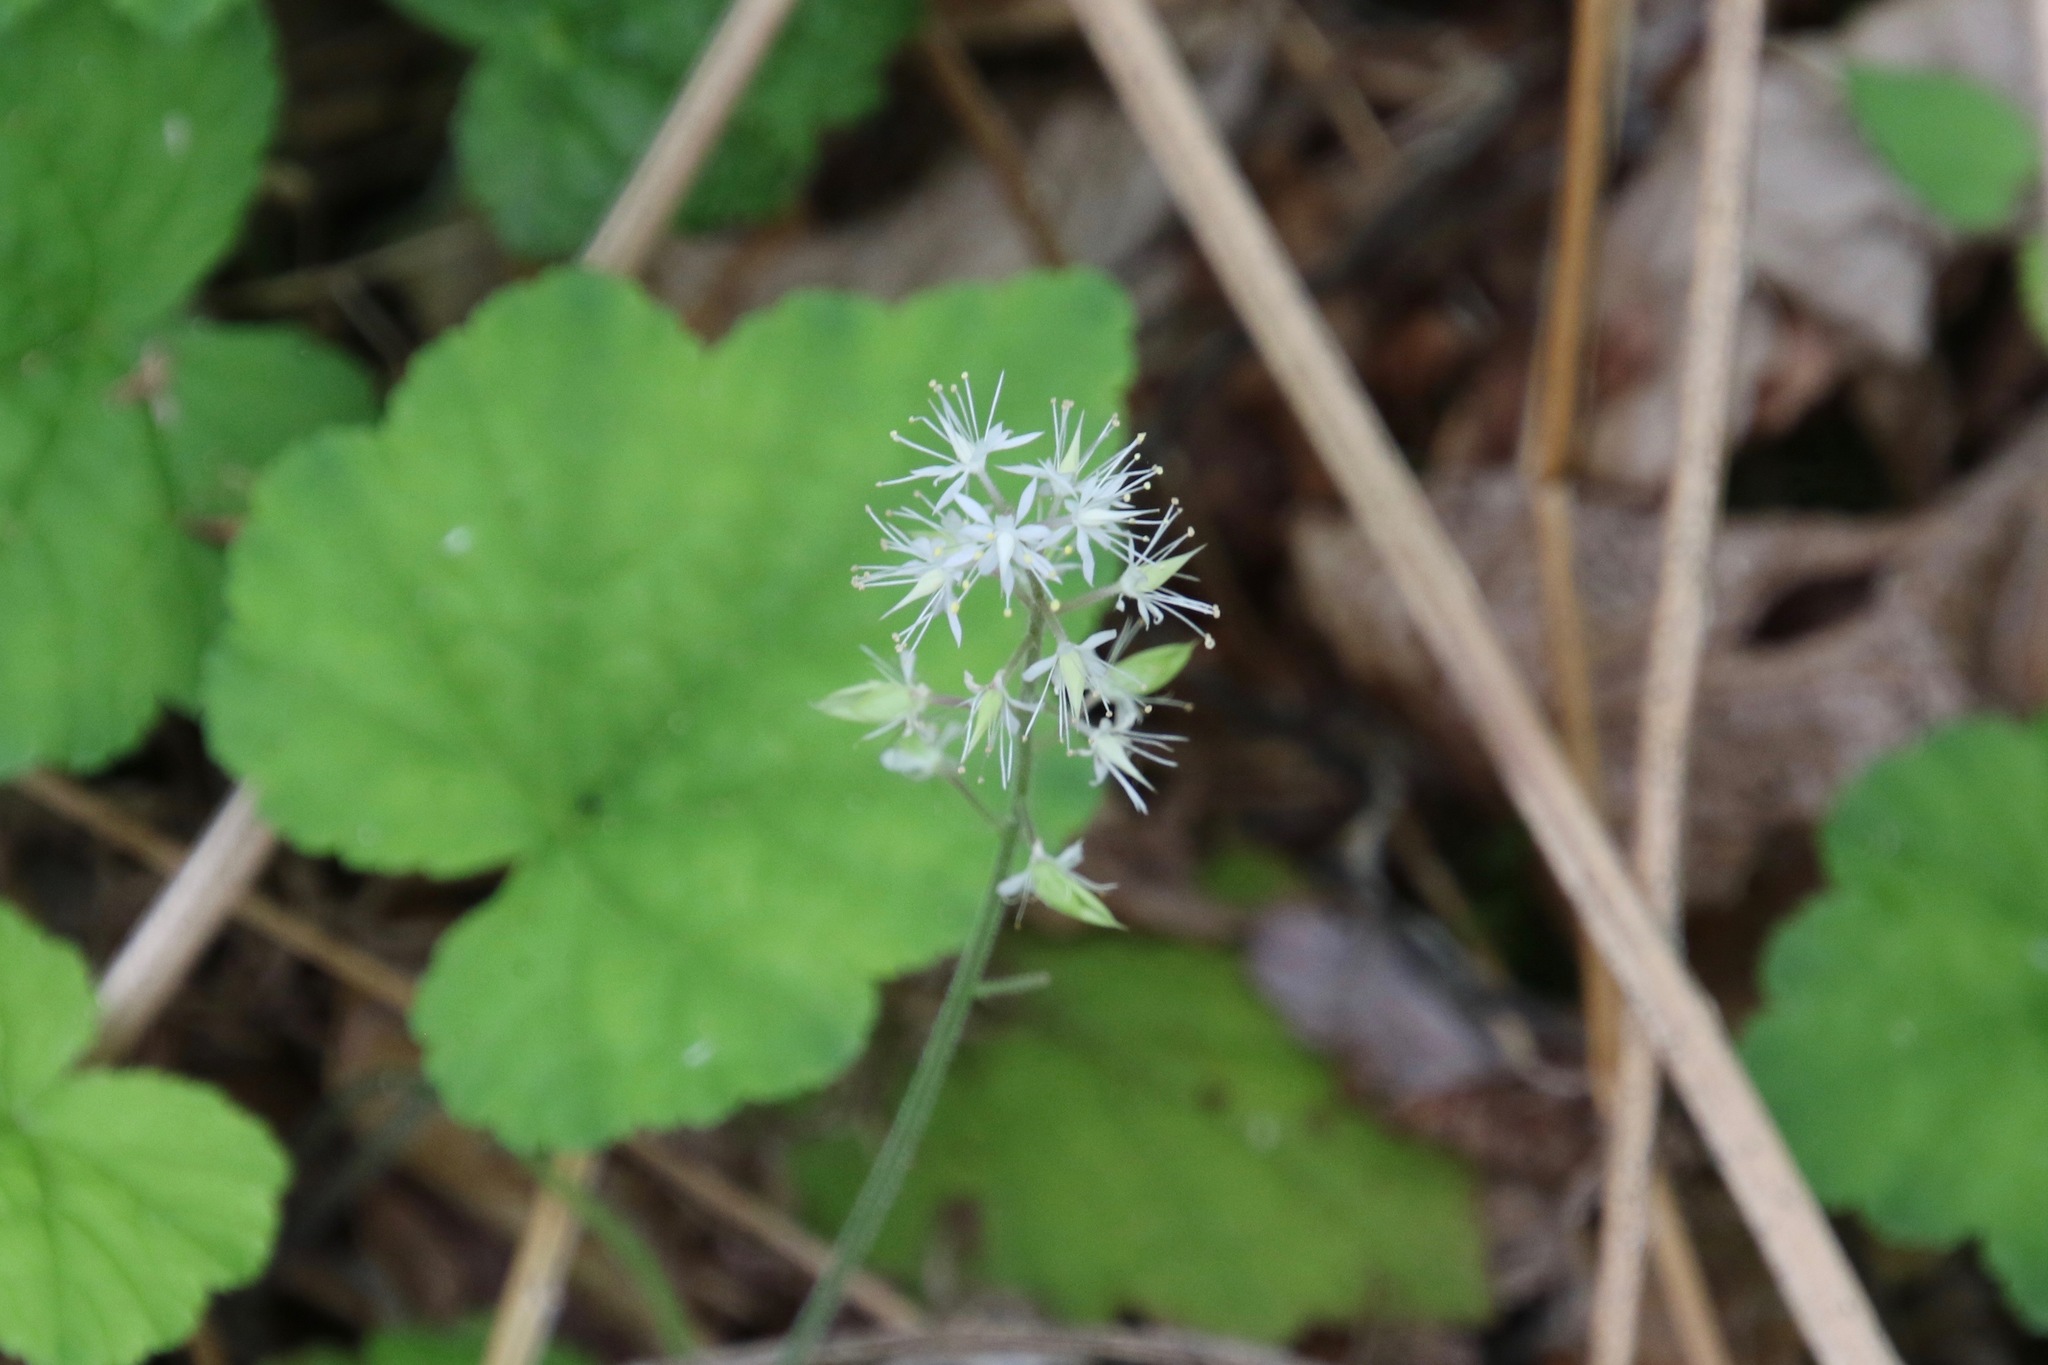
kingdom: Plantae
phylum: Tracheophyta
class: Magnoliopsida
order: Saxifragales
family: Saxifragaceae
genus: Tiarella
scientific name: Tiarella stolonifera
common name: Stoloniferous foamflower
